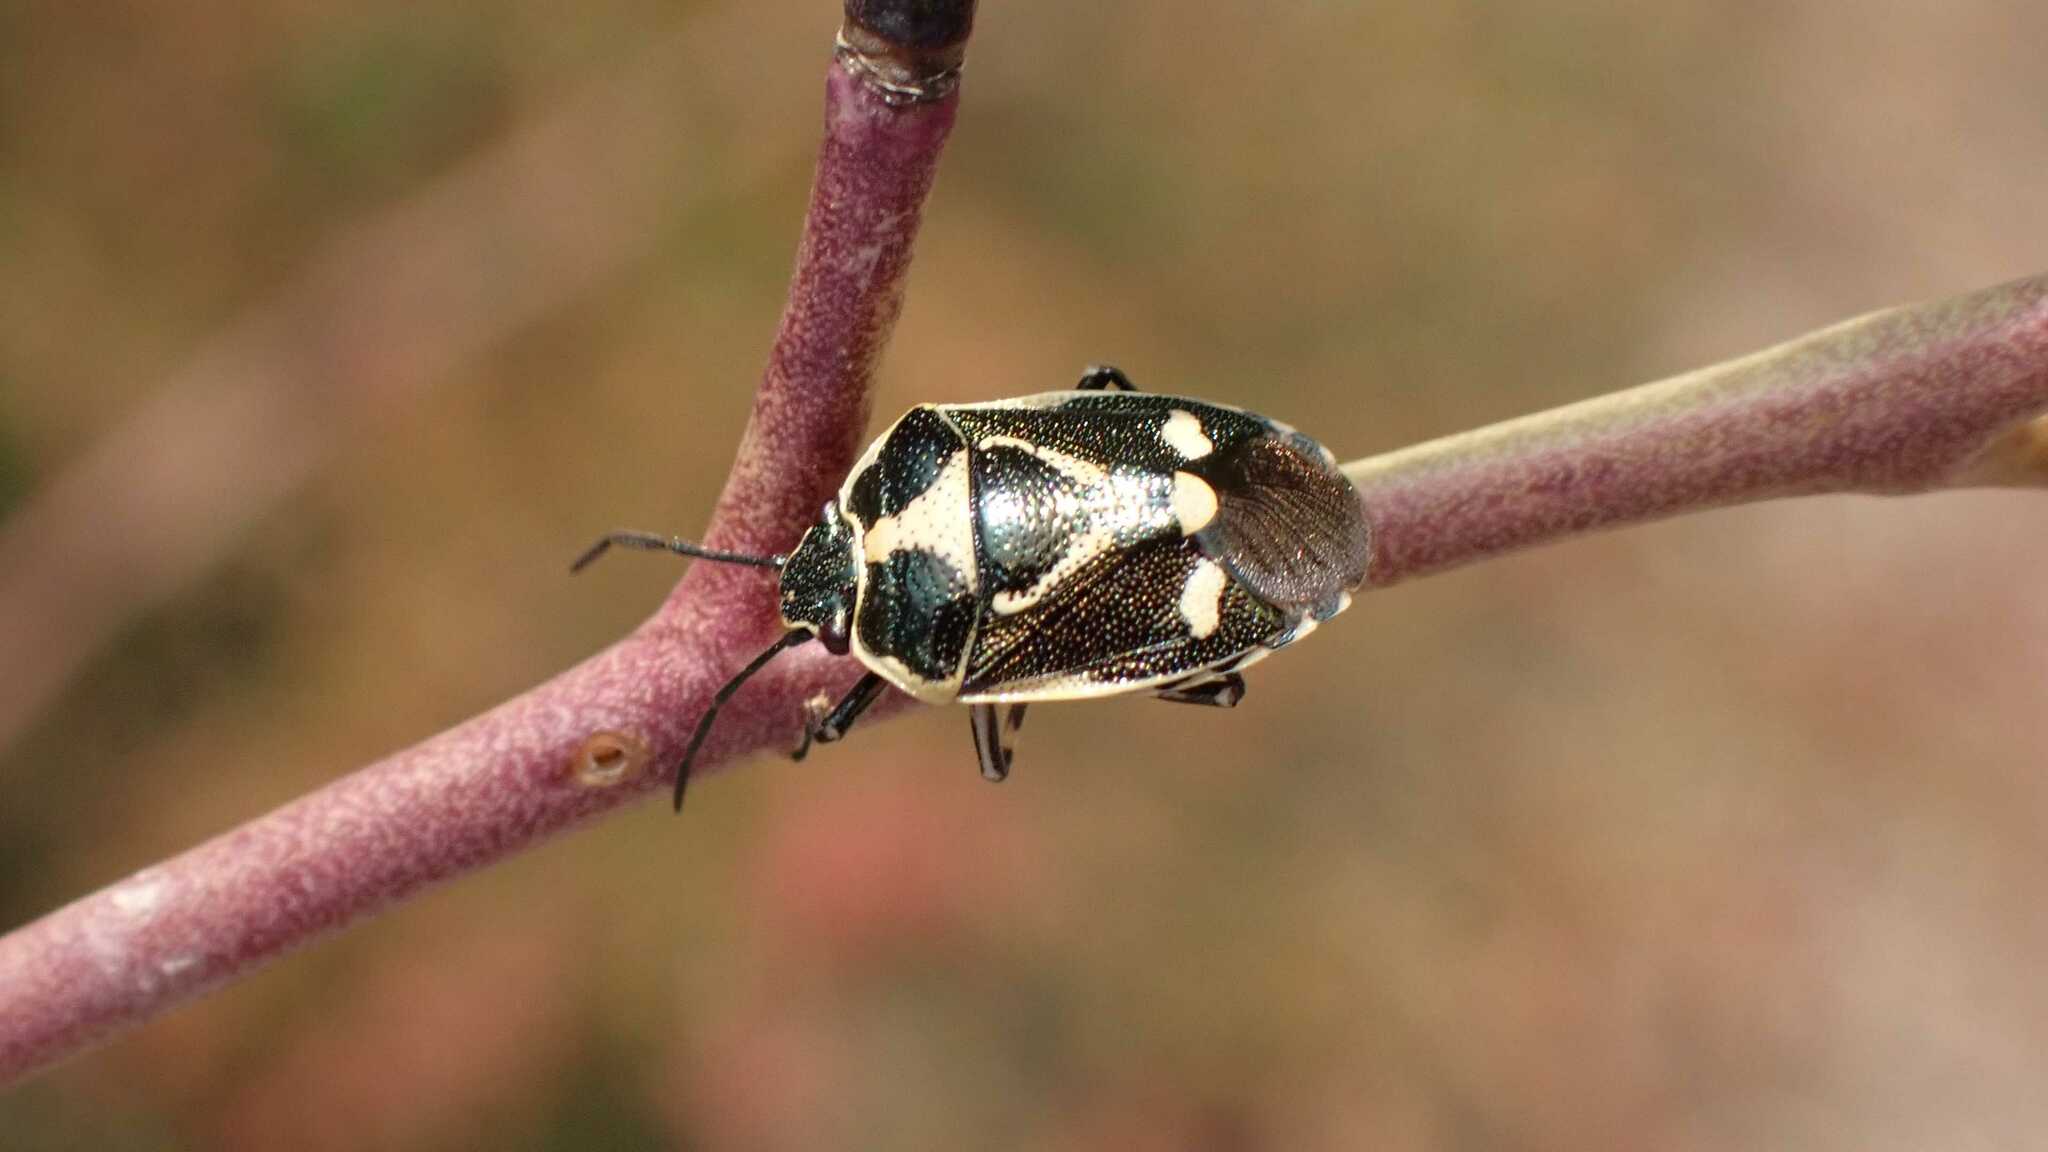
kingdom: Animalia
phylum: Arthropoda
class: Insecta
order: Hemiptera
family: Pentatomidae
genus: Eurydema
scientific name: Eurydema oleracea
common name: Cabbage bug
